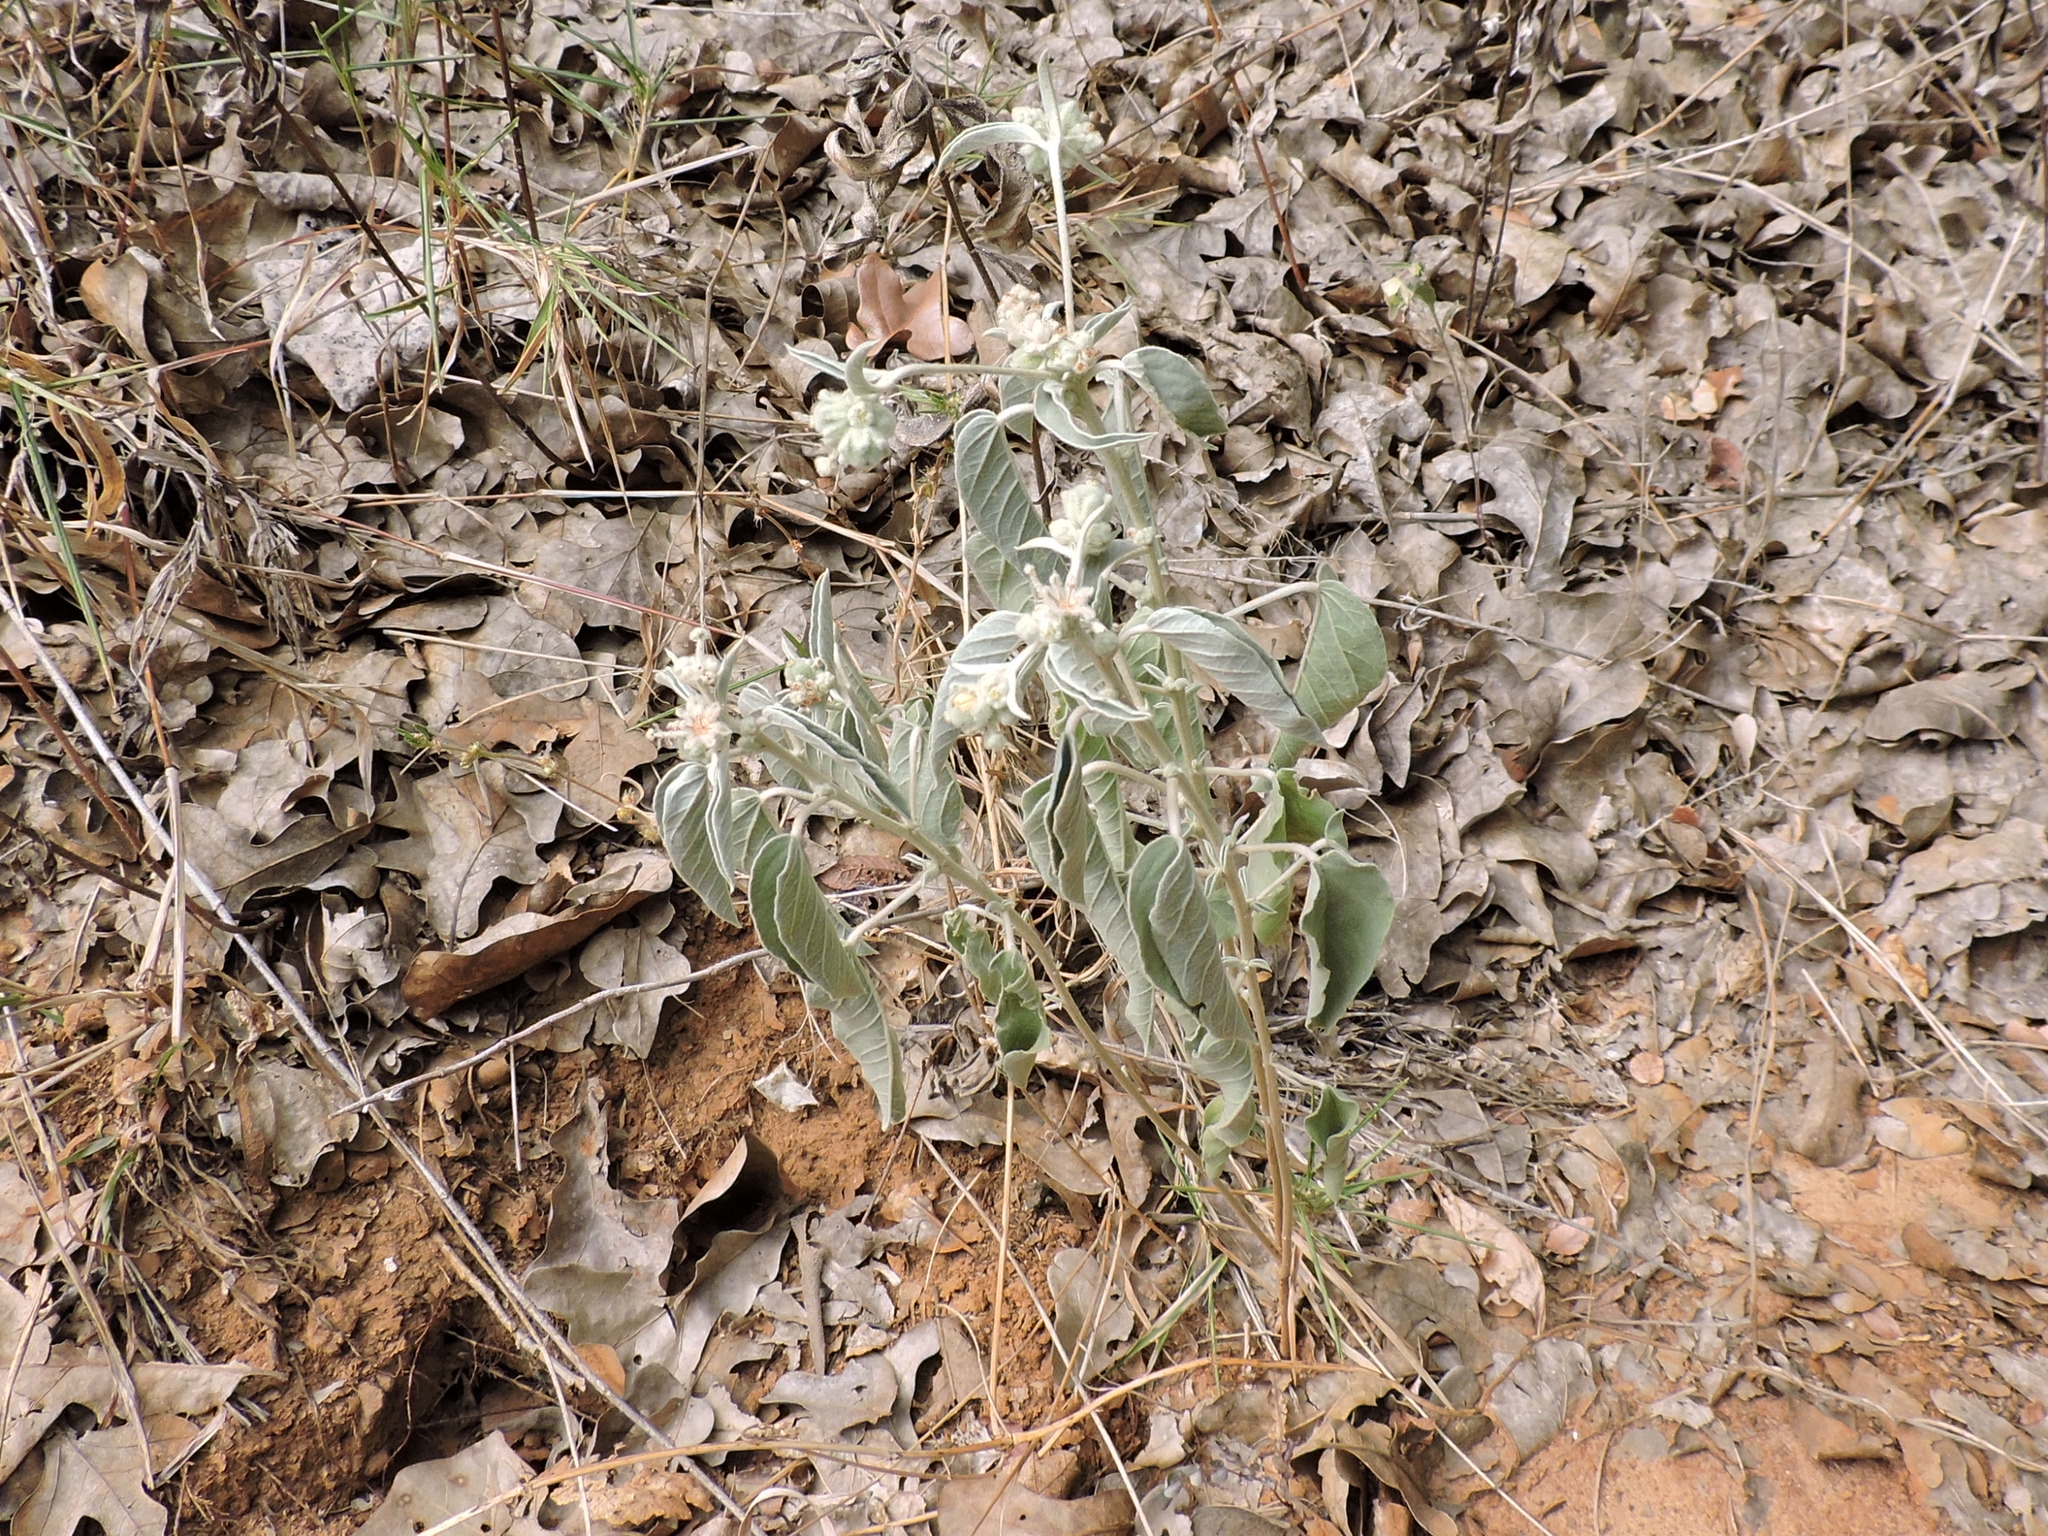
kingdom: Plantae
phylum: Tracheophyta
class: Magnoliopsida
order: Malpighiales
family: Euphorbiaceae
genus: Croton
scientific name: Croton lindheimeri
